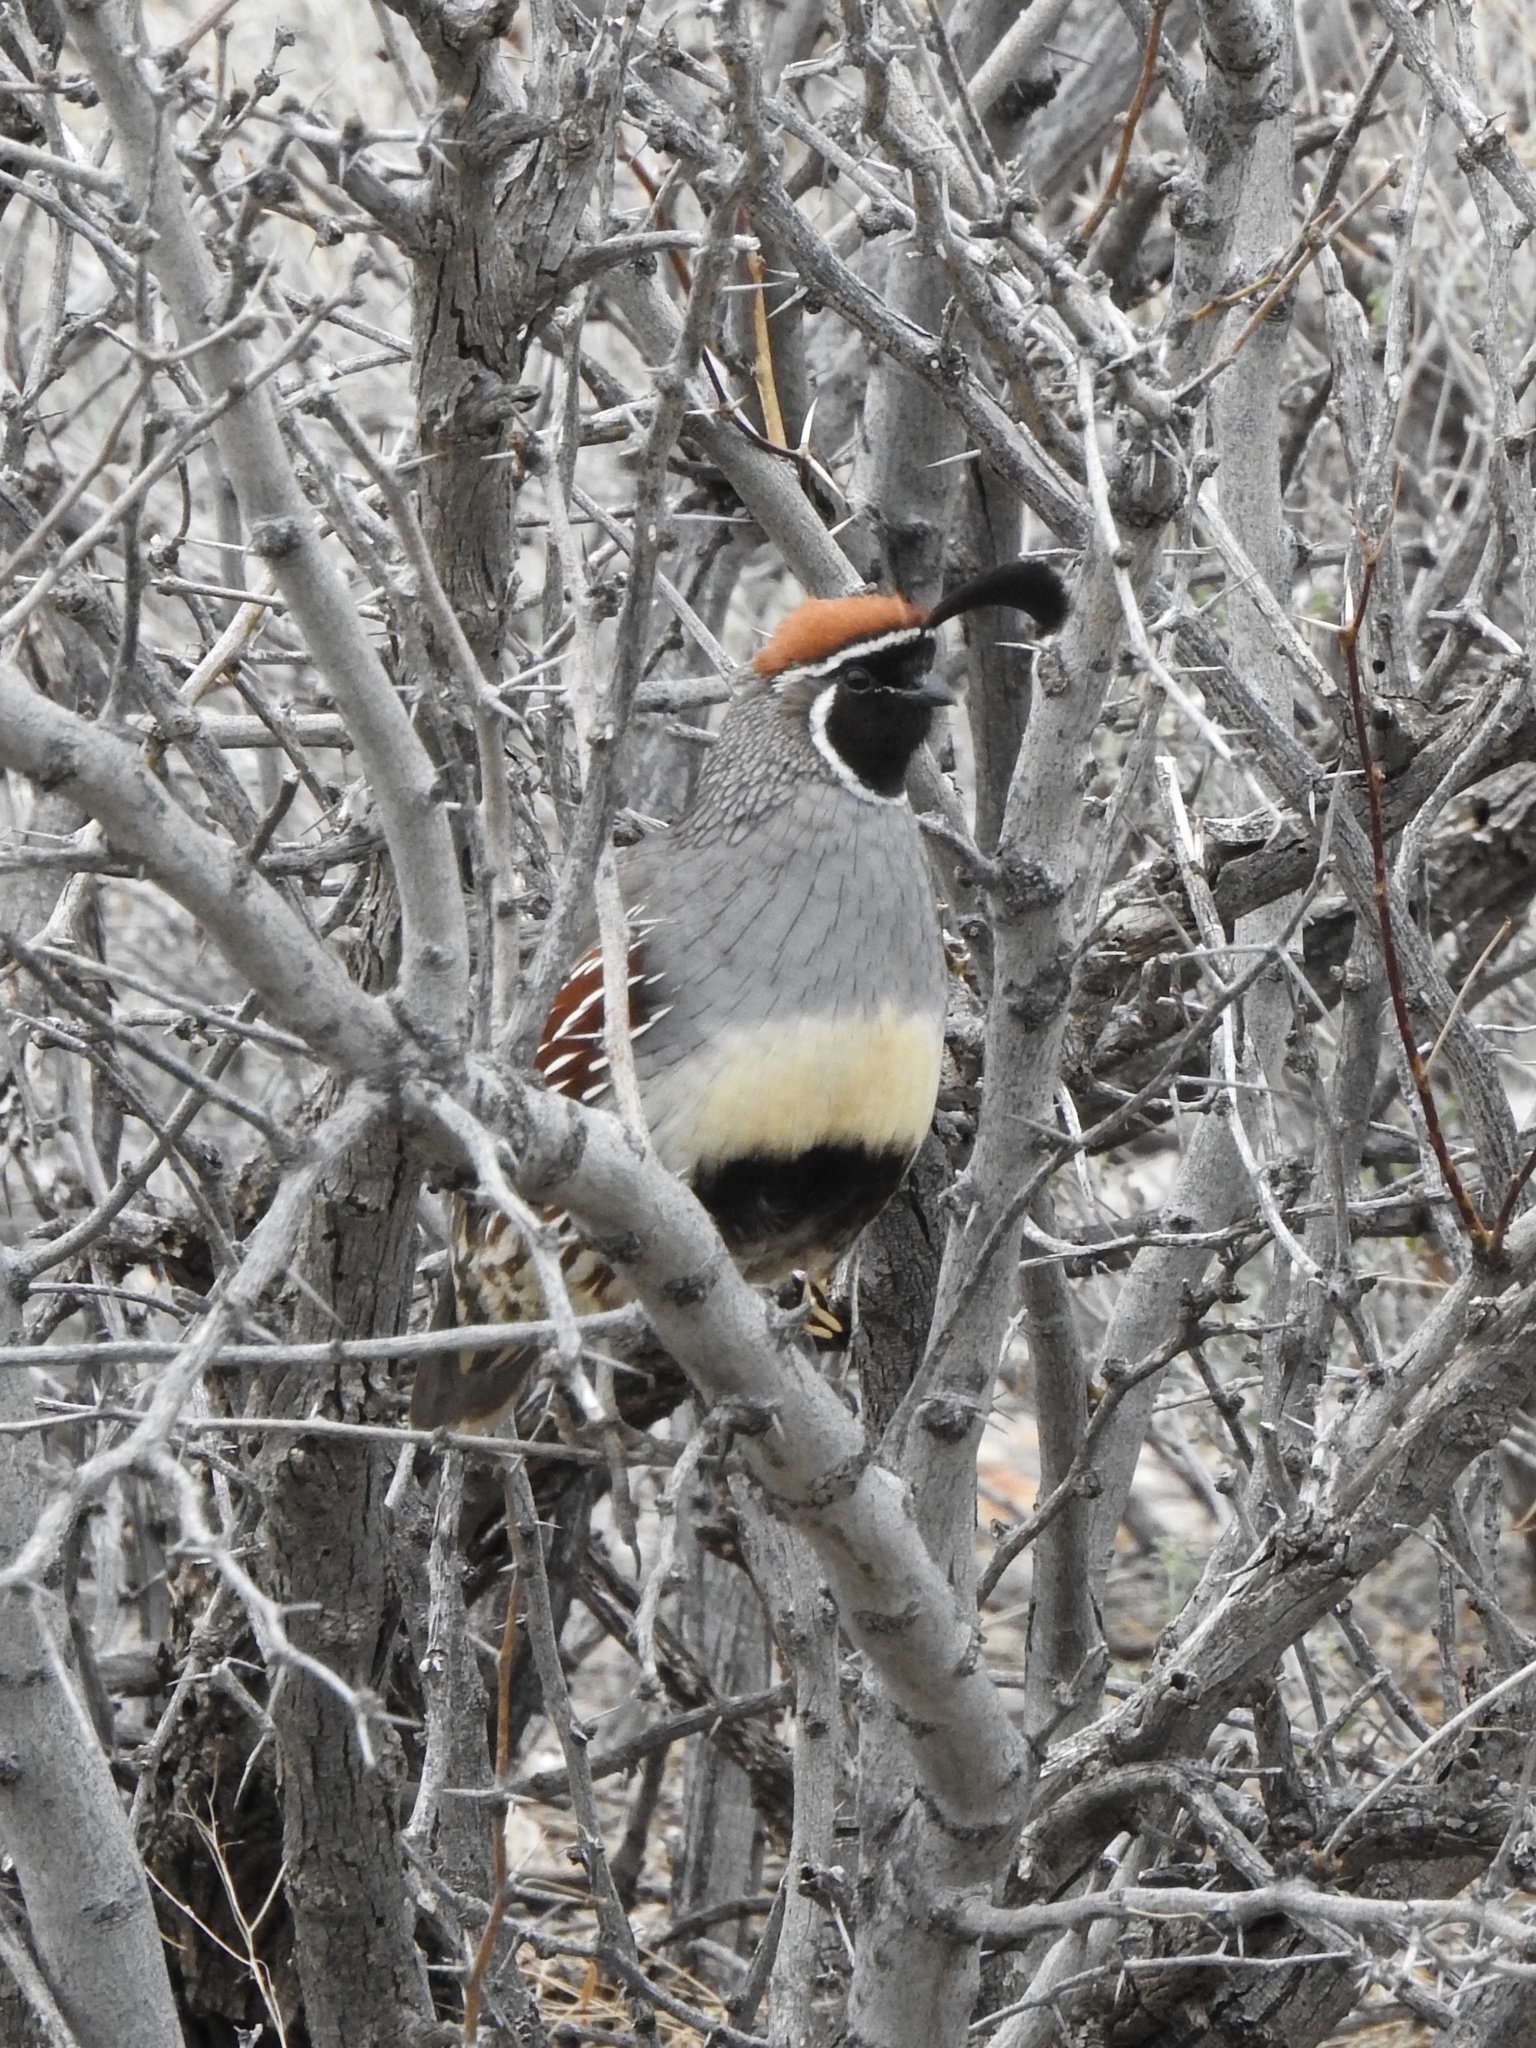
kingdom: Animalia
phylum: Chordata
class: Aves
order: Galliformes
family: Odontophoridae
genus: Callipepla
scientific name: Callipepla gambelii
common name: Gambel's quail
